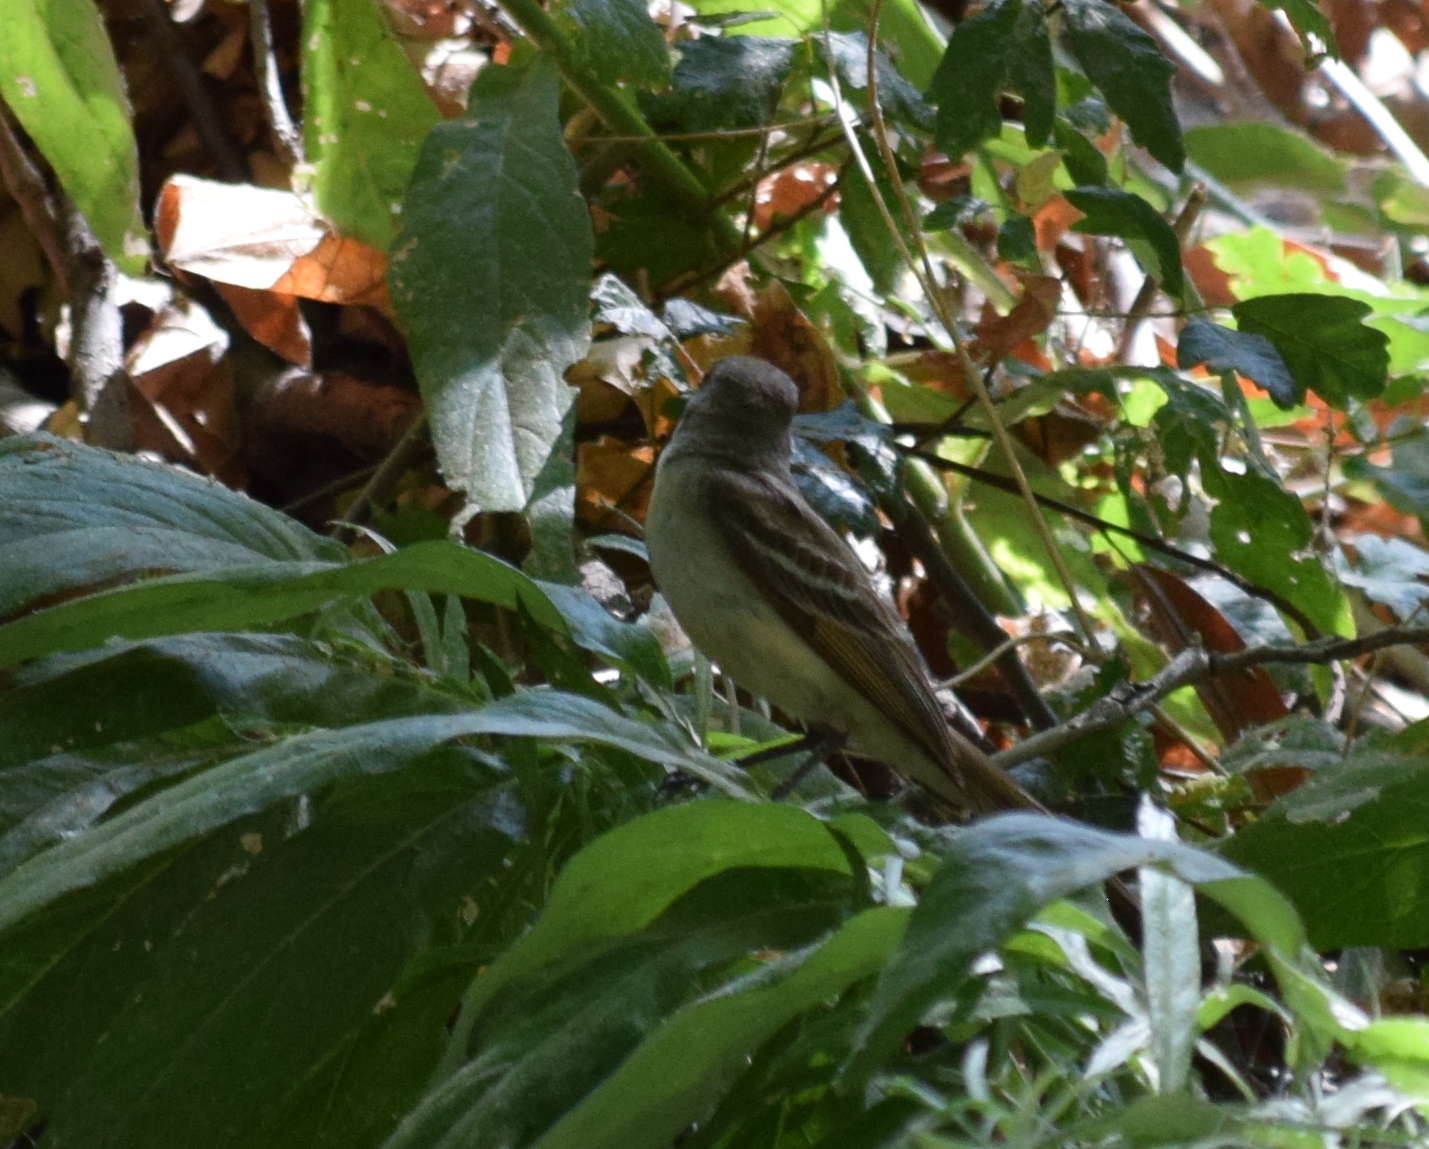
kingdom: Animalia
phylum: Chordata
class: Aves
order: Passeriformes
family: Tyrannidae
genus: Myiarchus
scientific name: Myiarchus cinerascens
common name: Ash-throated flycatcher
